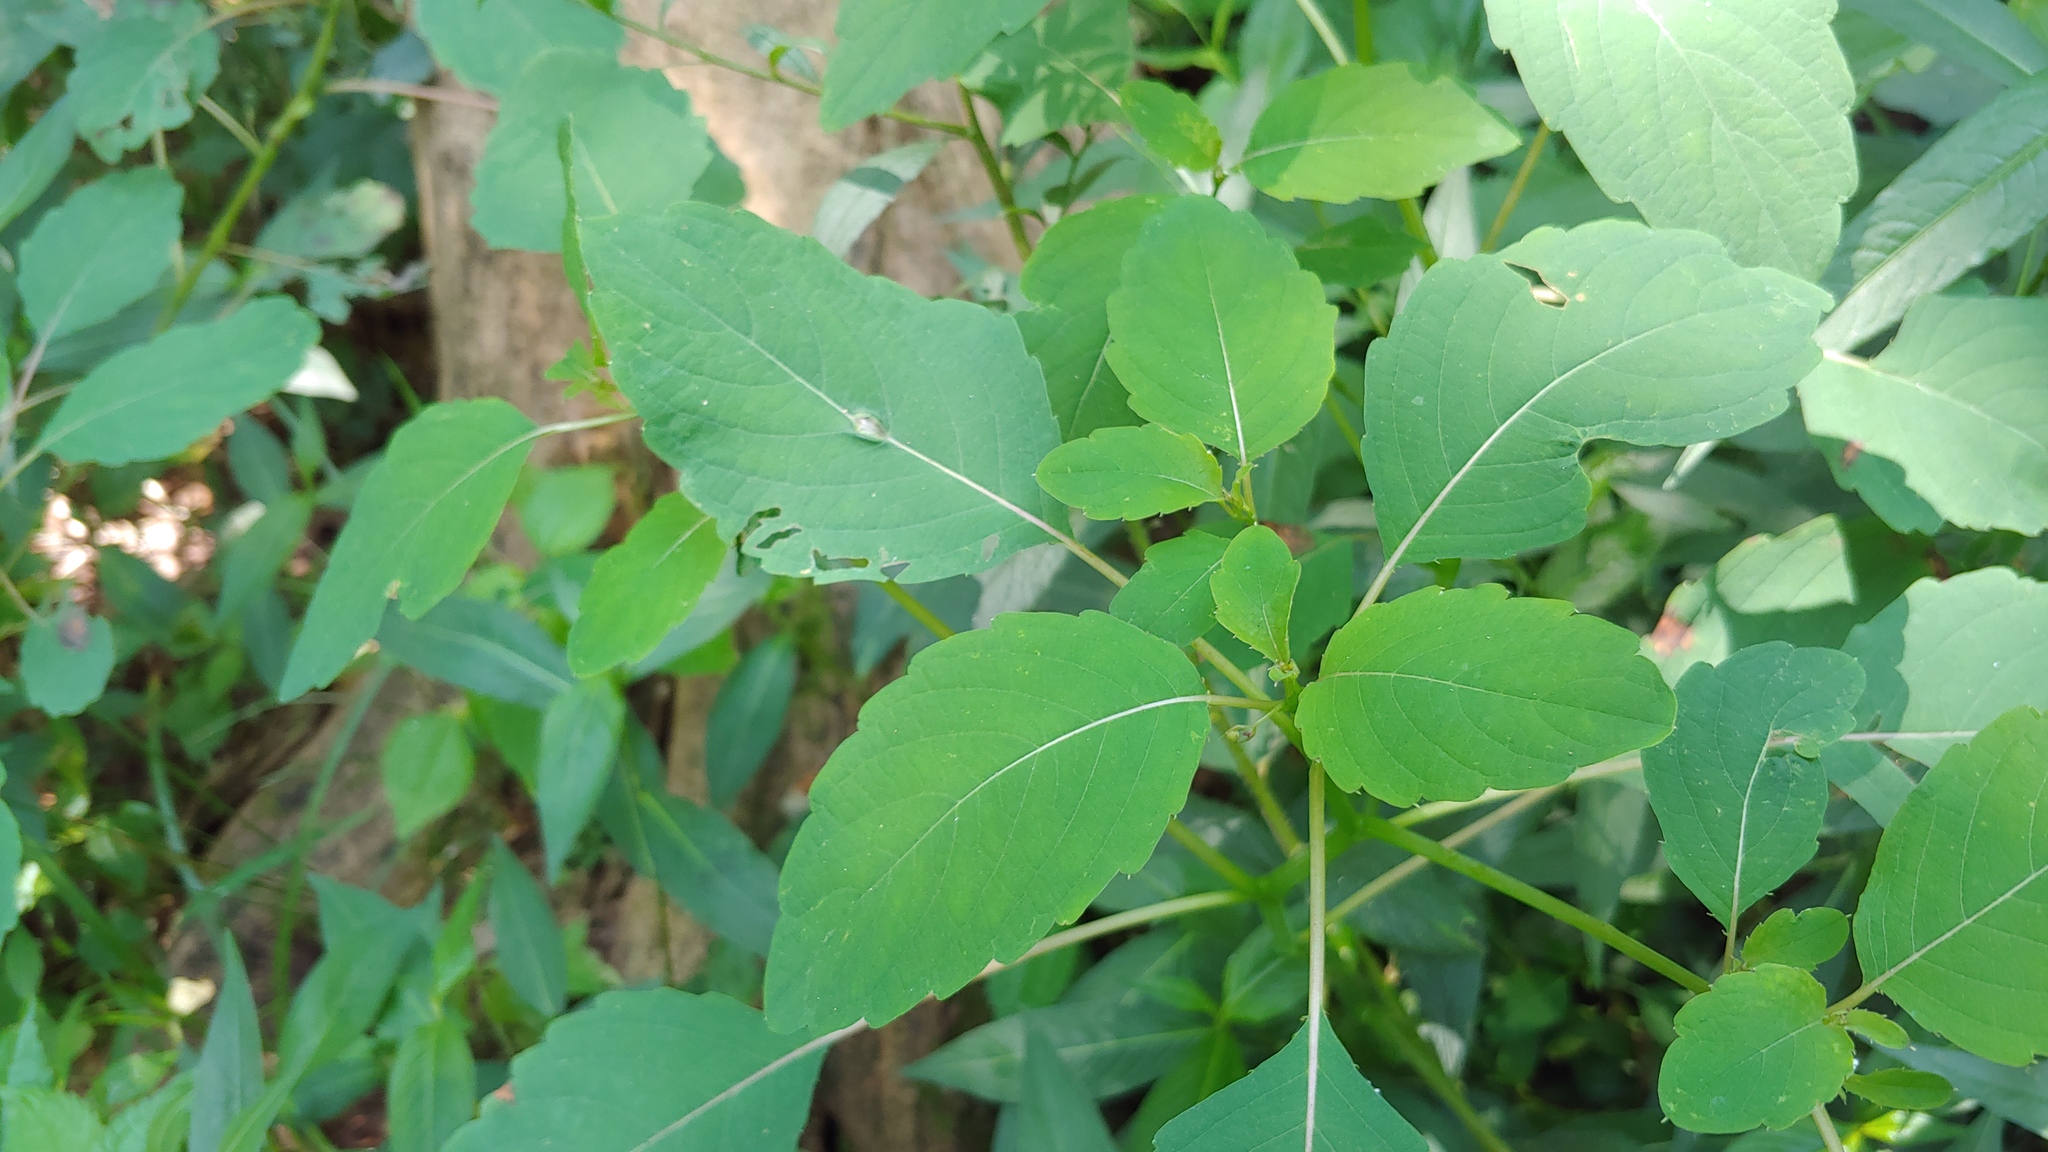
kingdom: Animalia
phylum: Arthropoda
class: Insecta
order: Diptera
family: Cecidomyiidae
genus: Neolasioptera
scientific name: Neolasioptera impatientifolia
